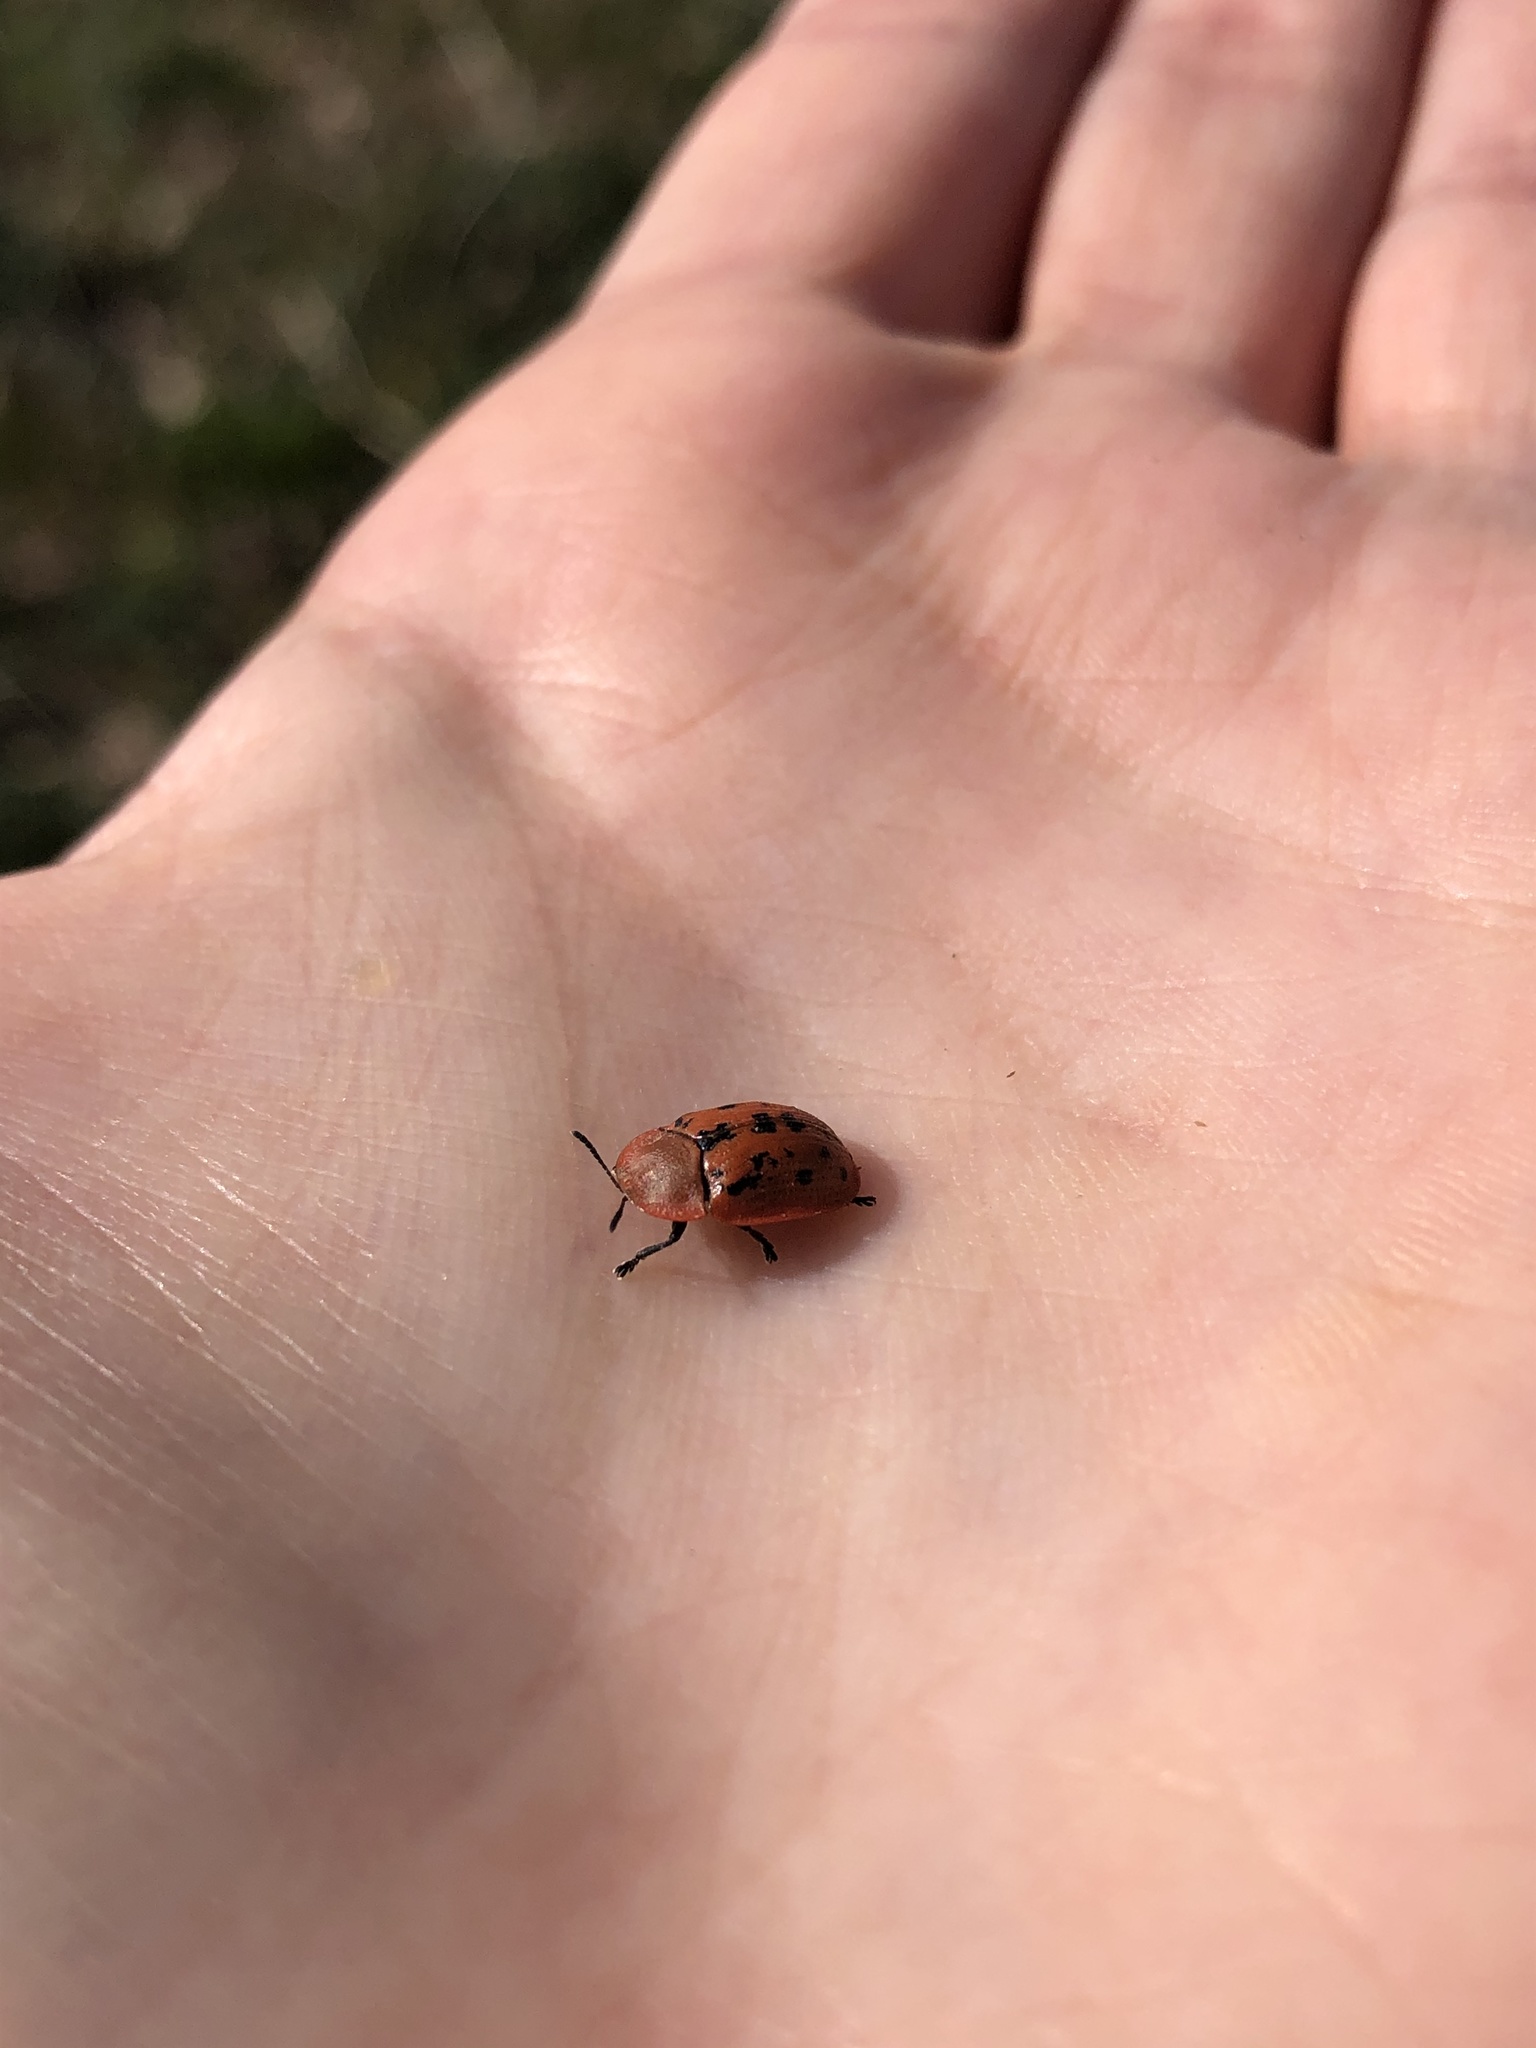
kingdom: Animalia
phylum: Arthropoda
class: Insecta
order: Coleoptera
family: Chrysomelidae
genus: Cassida
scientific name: Cassida murraea
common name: Fleabane tortoise beetle
